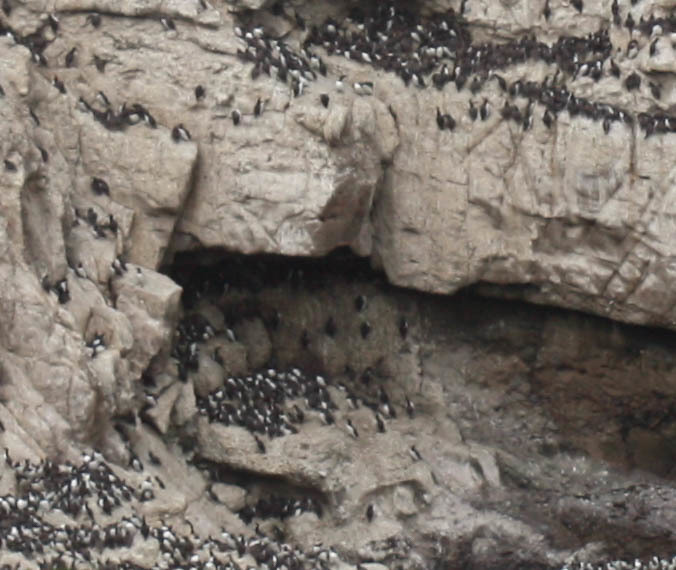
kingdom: Animalia
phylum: Chordata
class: Aves
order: Charadriiformes
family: Alcidae
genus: Uria
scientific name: Uria aalge
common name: Common murre
